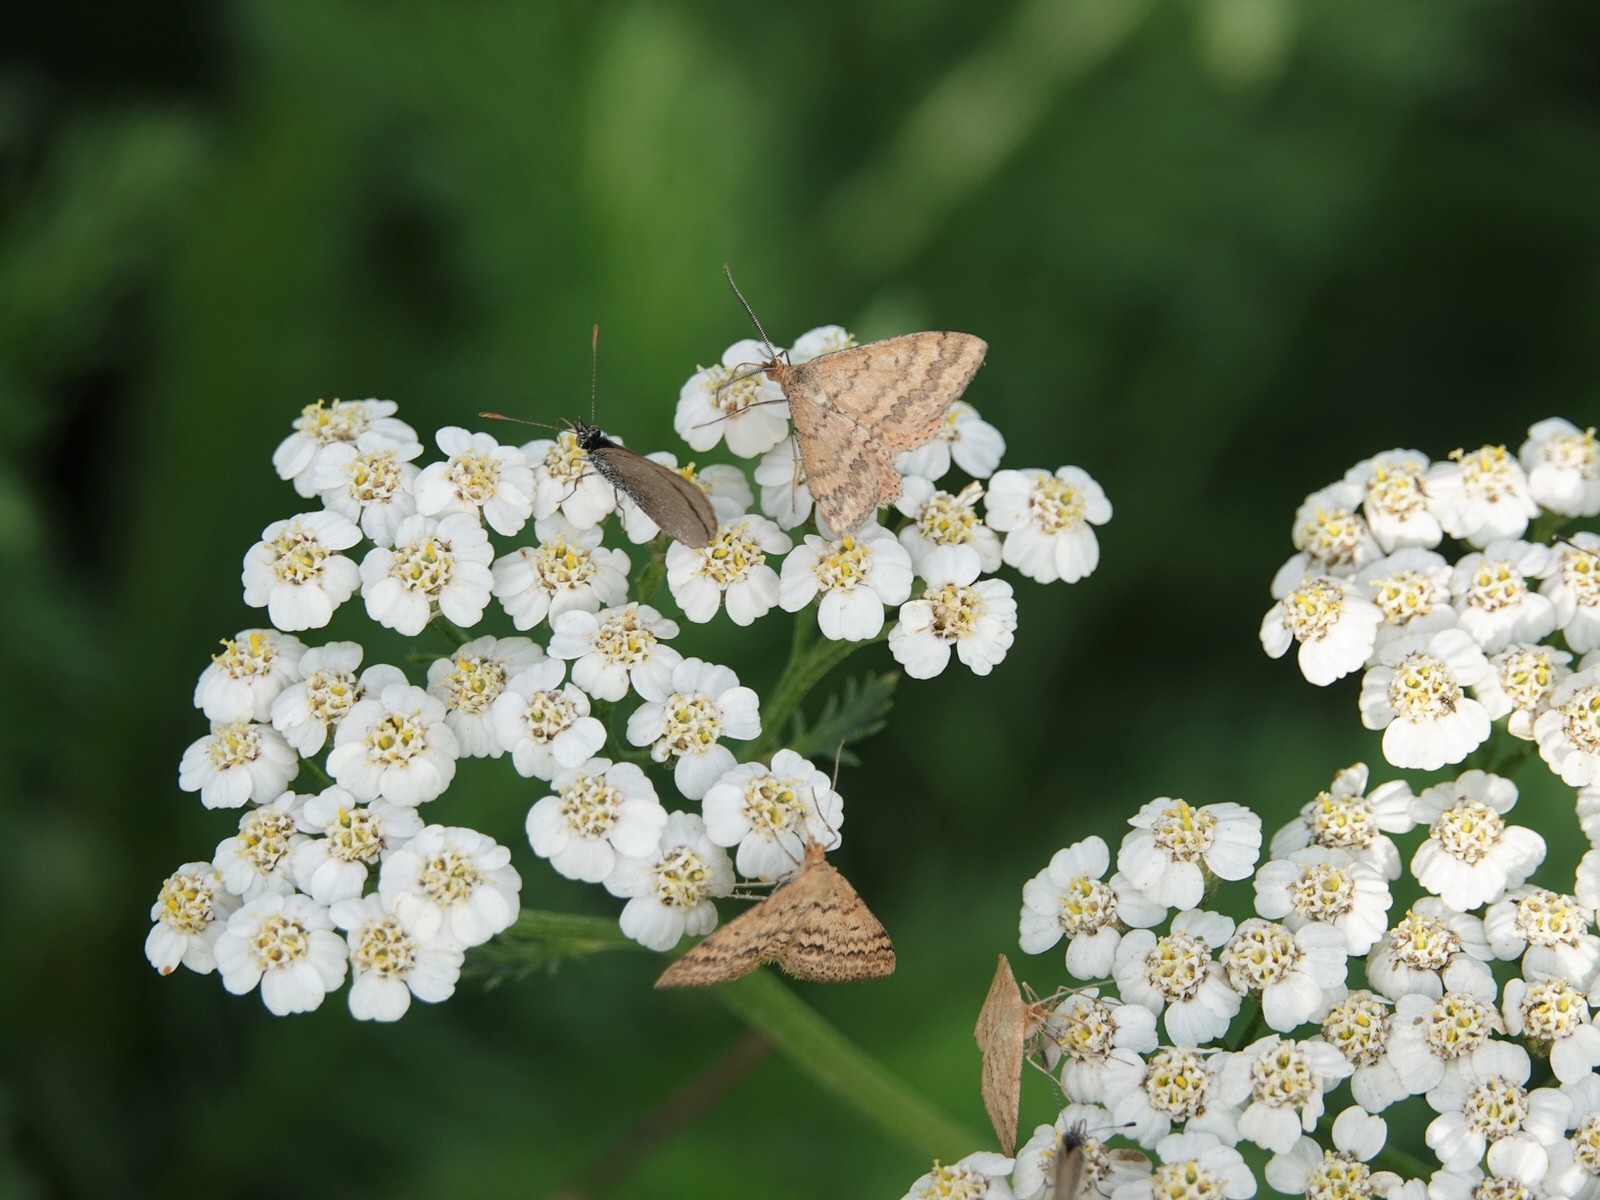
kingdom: Animalia
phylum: Arthropoda
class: Insecta
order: Lepidoptera
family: Geometridae
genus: Scopula
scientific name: Scopula rubraria
